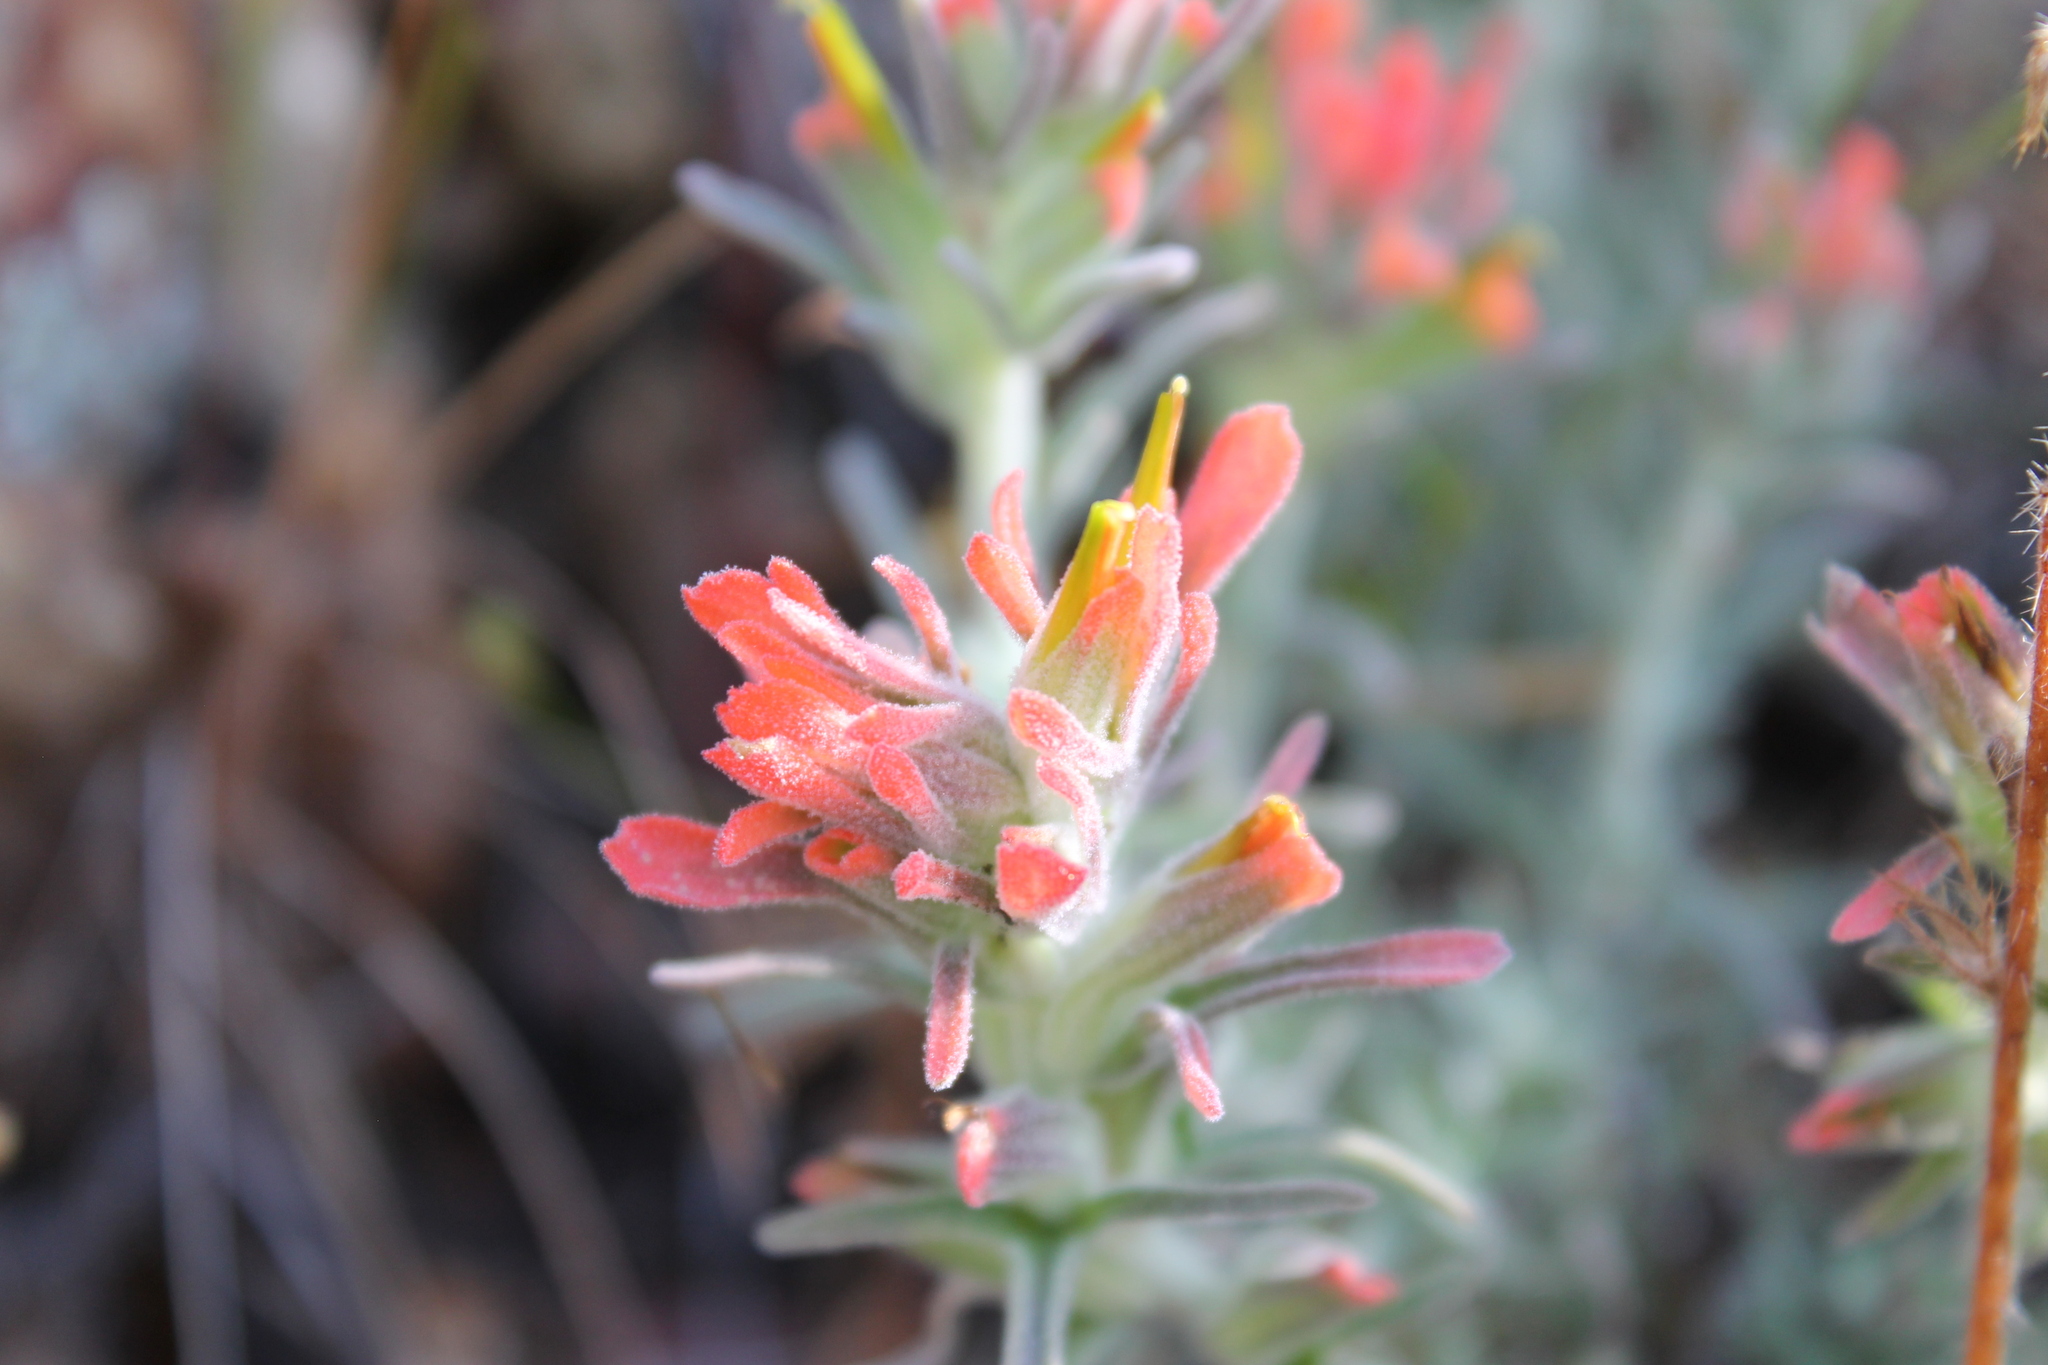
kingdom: Plantae
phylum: Tracheophyta
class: Magnoliopsida
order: Lamiales
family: Orobanchaceae
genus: Castilleja
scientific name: Castilleja foliolosa
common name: Woolly indian paintbrush
